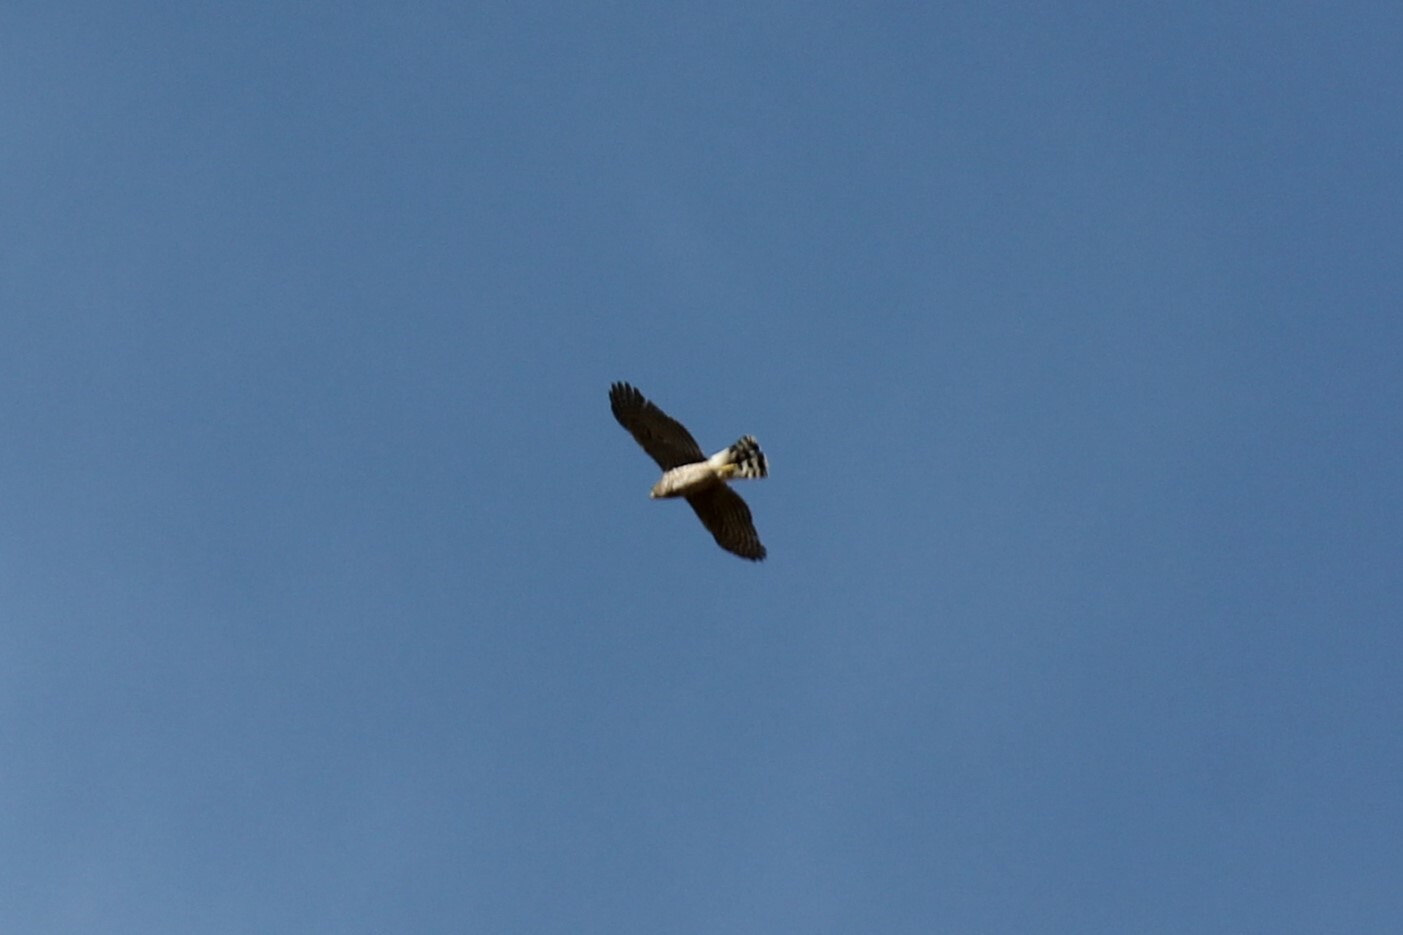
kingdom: Animalia
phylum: Chordata
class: Aves
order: Accipitriformes
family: Accipitridae
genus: Accipiter
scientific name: Accipiter cooperii
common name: Cooper's hawk
